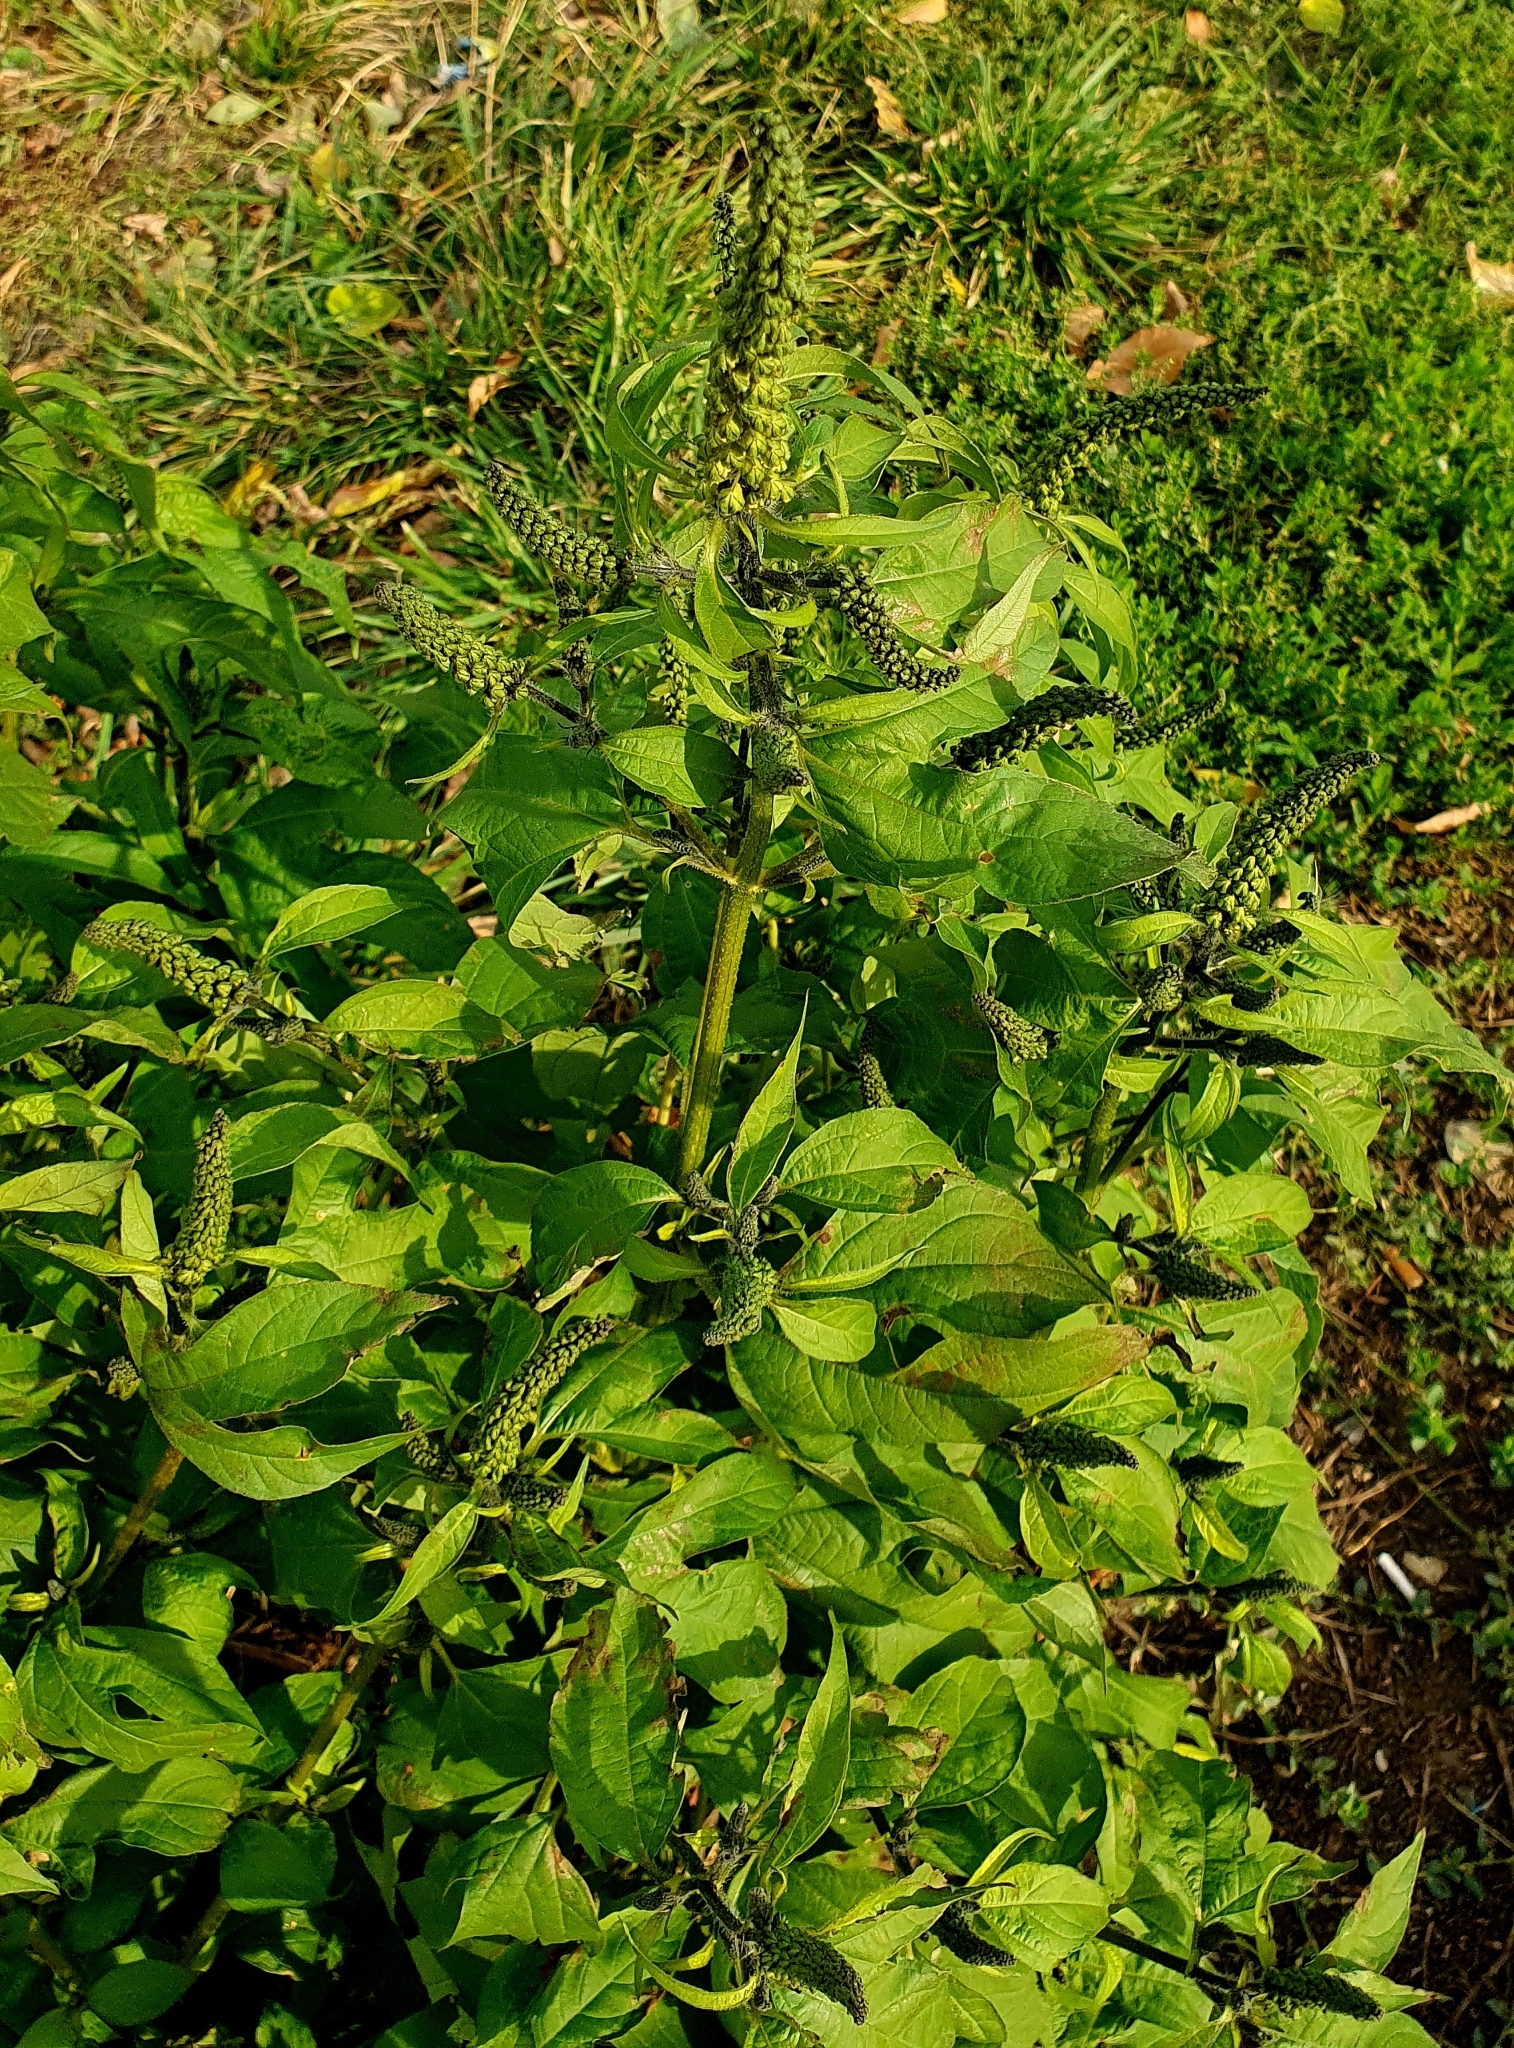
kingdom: Plantae
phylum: Tracheophyta
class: Magnoliopsida
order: Asterales
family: Asteraceae
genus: Ambrosia
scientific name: Ambrosia trifida
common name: Giant ragweed
